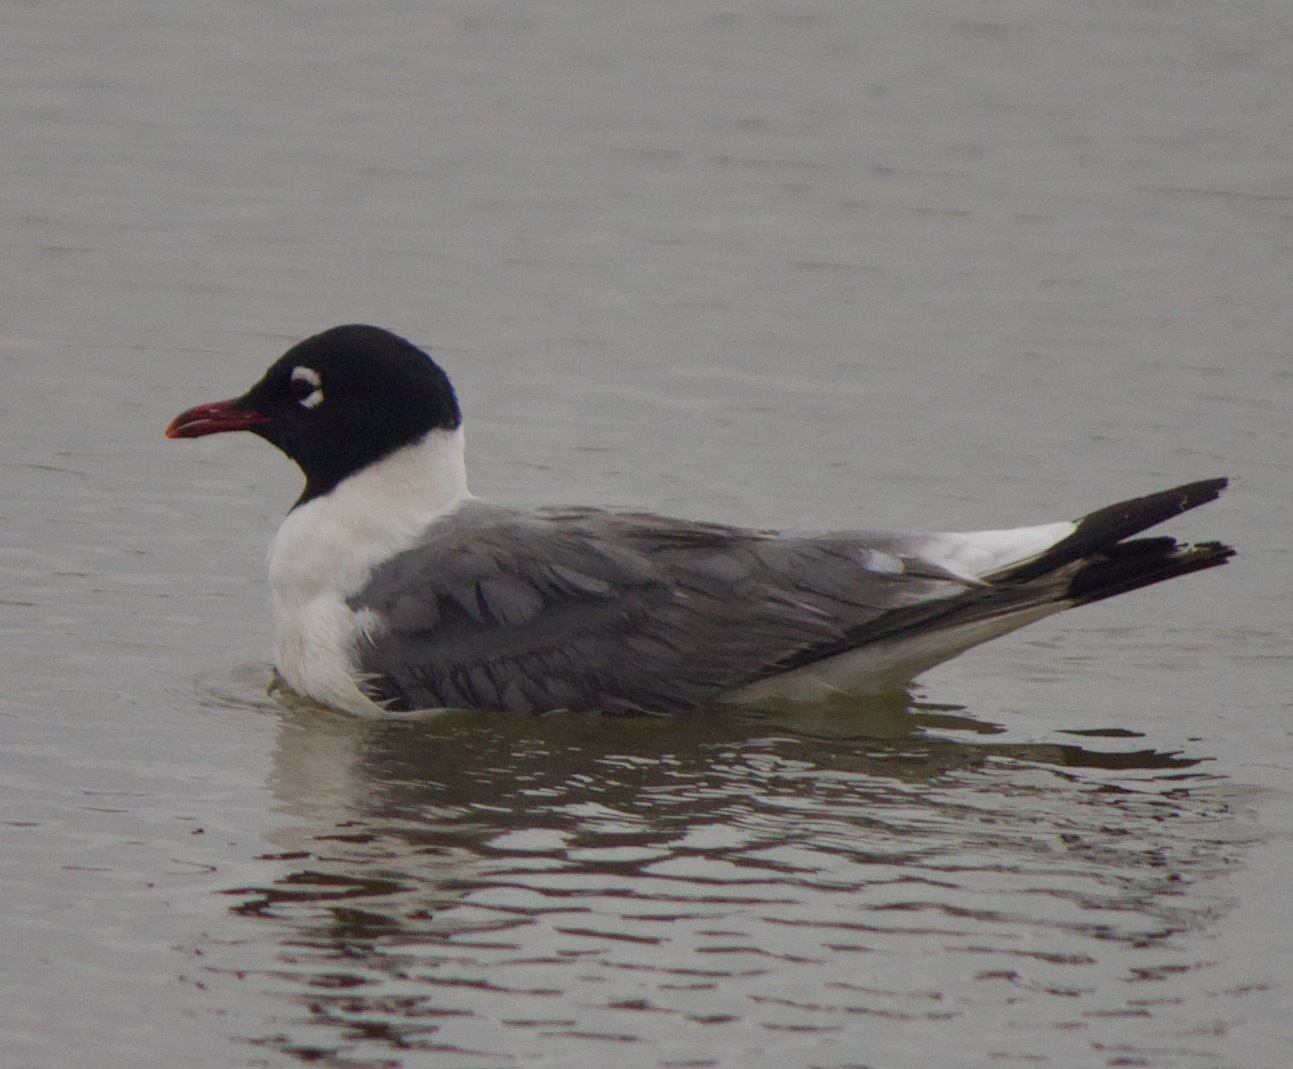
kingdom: Animalia
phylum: Chordata
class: Aves
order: Charadriiformes
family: Laridae
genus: Leucophaeus
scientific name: Leucophaeus pipixcan
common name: Franklin's gull
